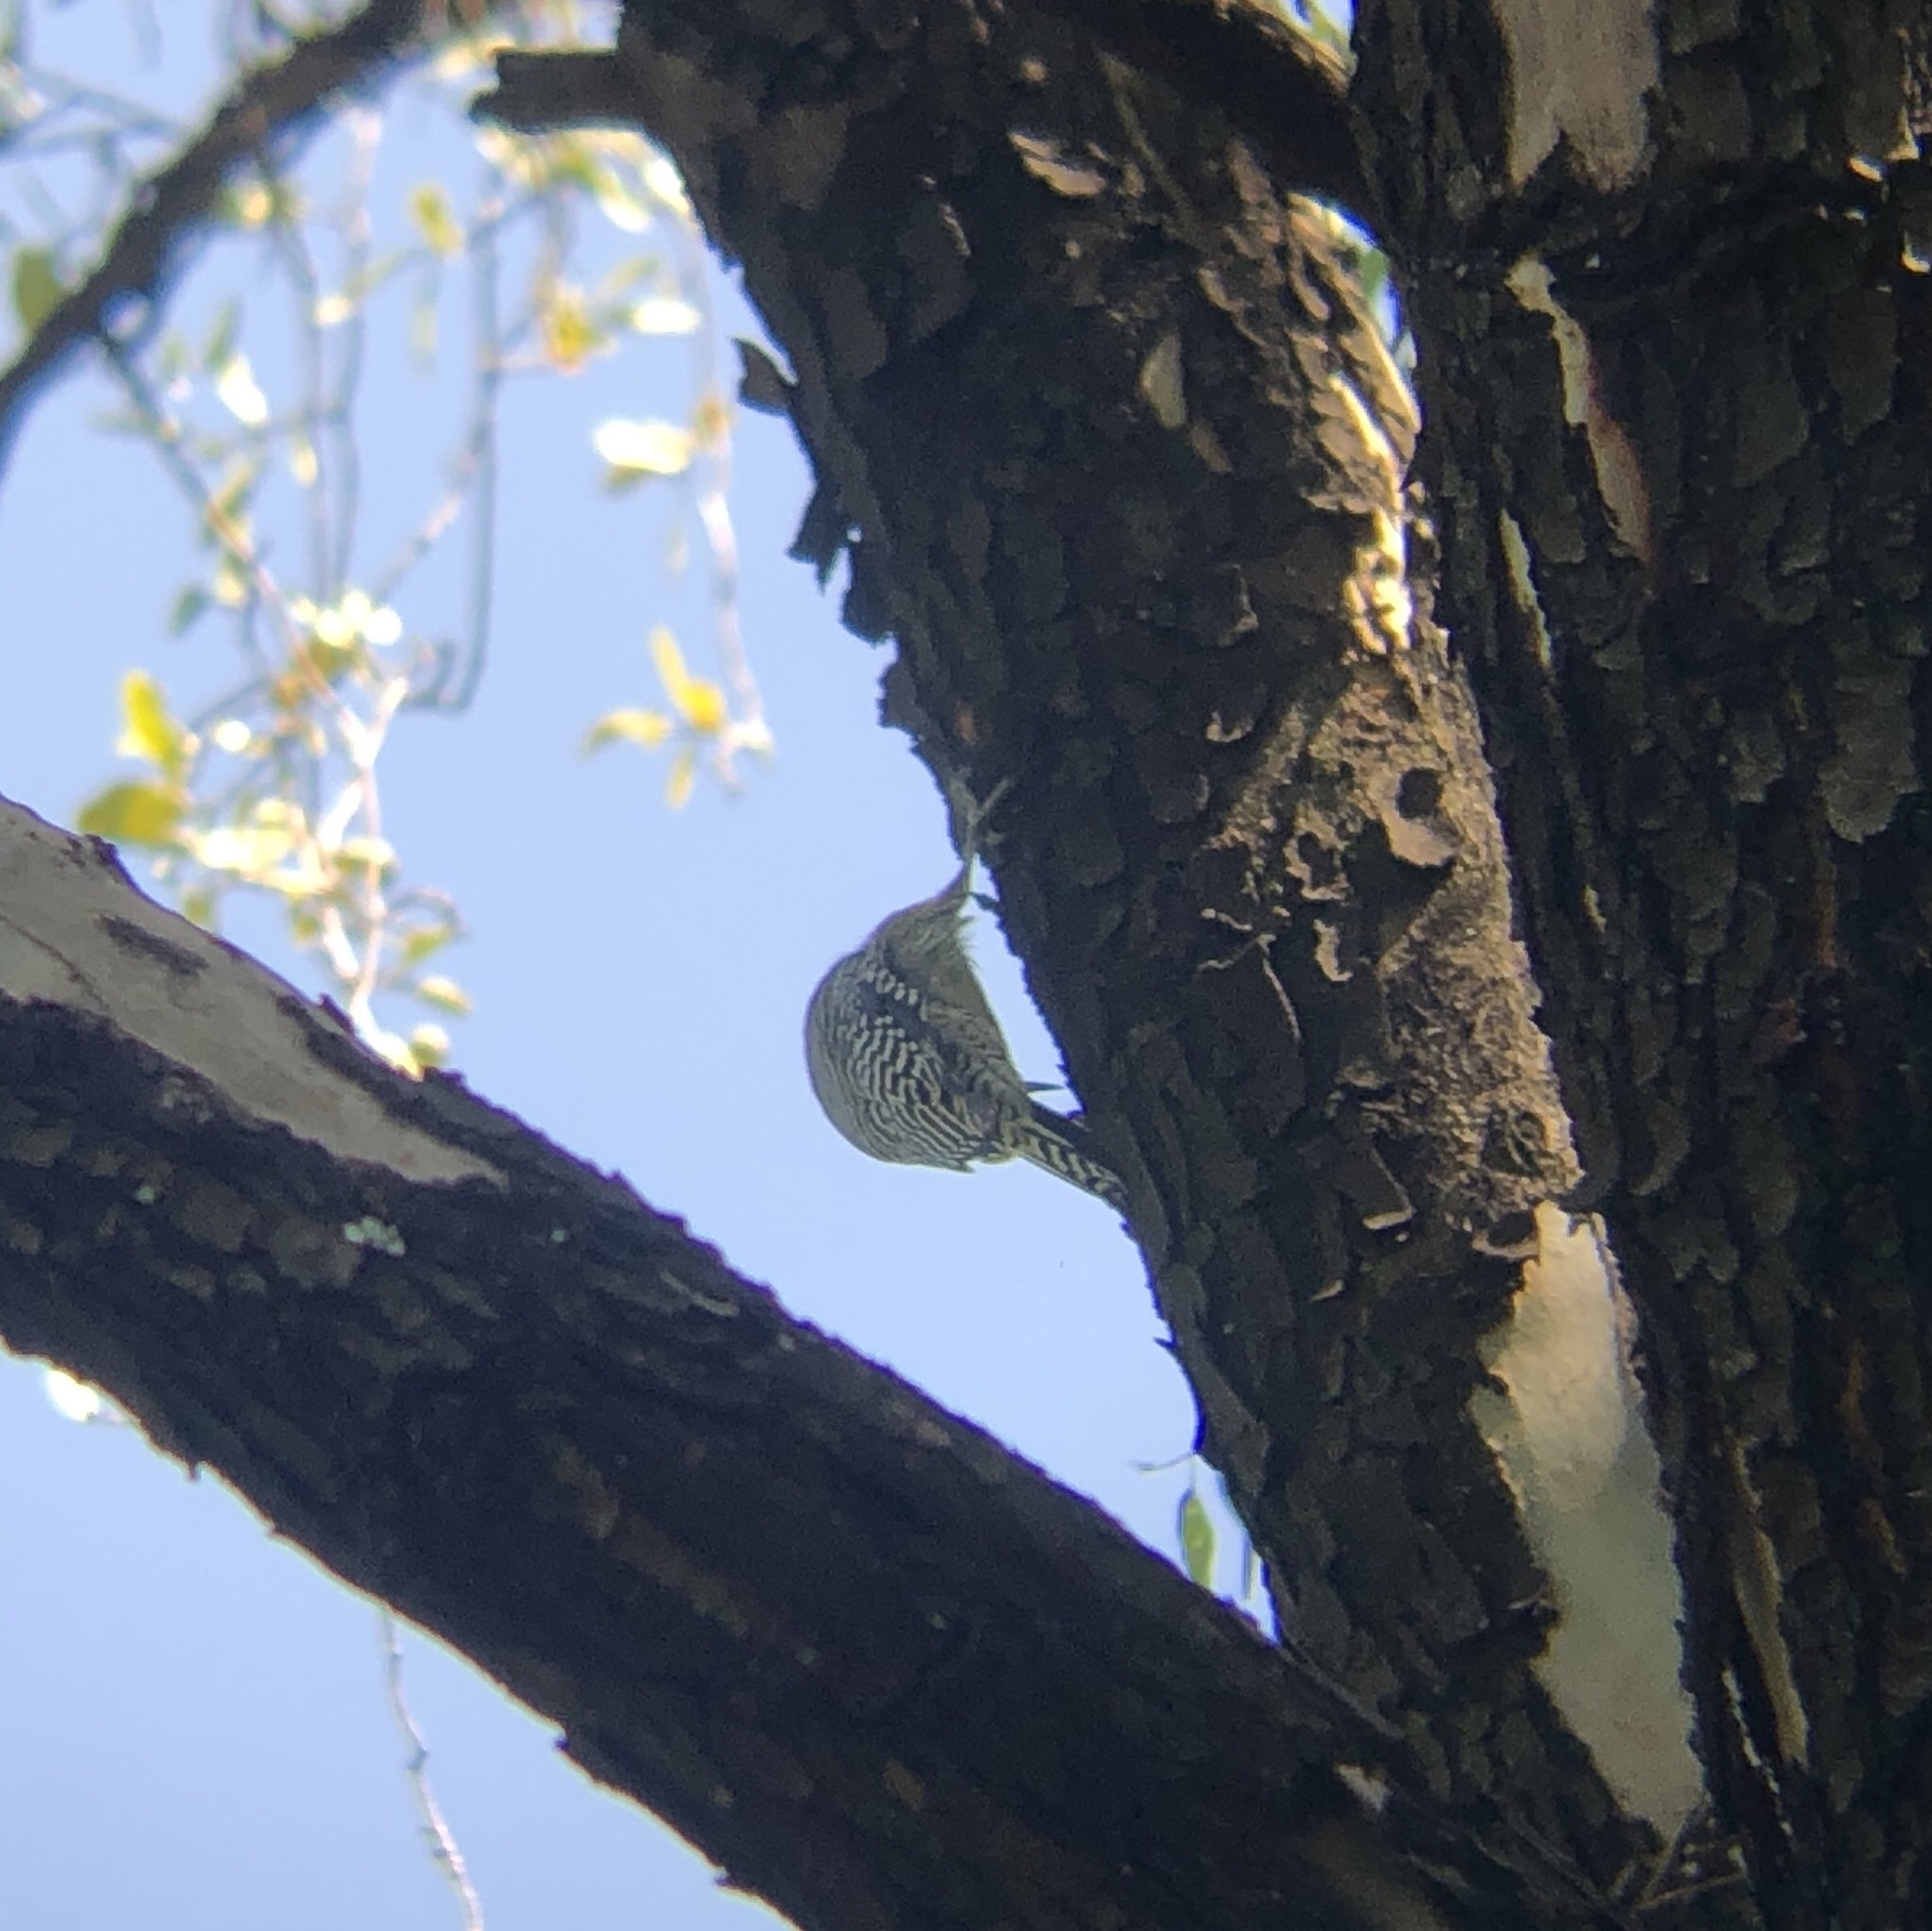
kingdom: Animalia
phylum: Chordata
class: Aves
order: Piciformes
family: Picidae
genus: Melanerpes
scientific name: Melanerpes uropygialis
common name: Gila woodpecker
